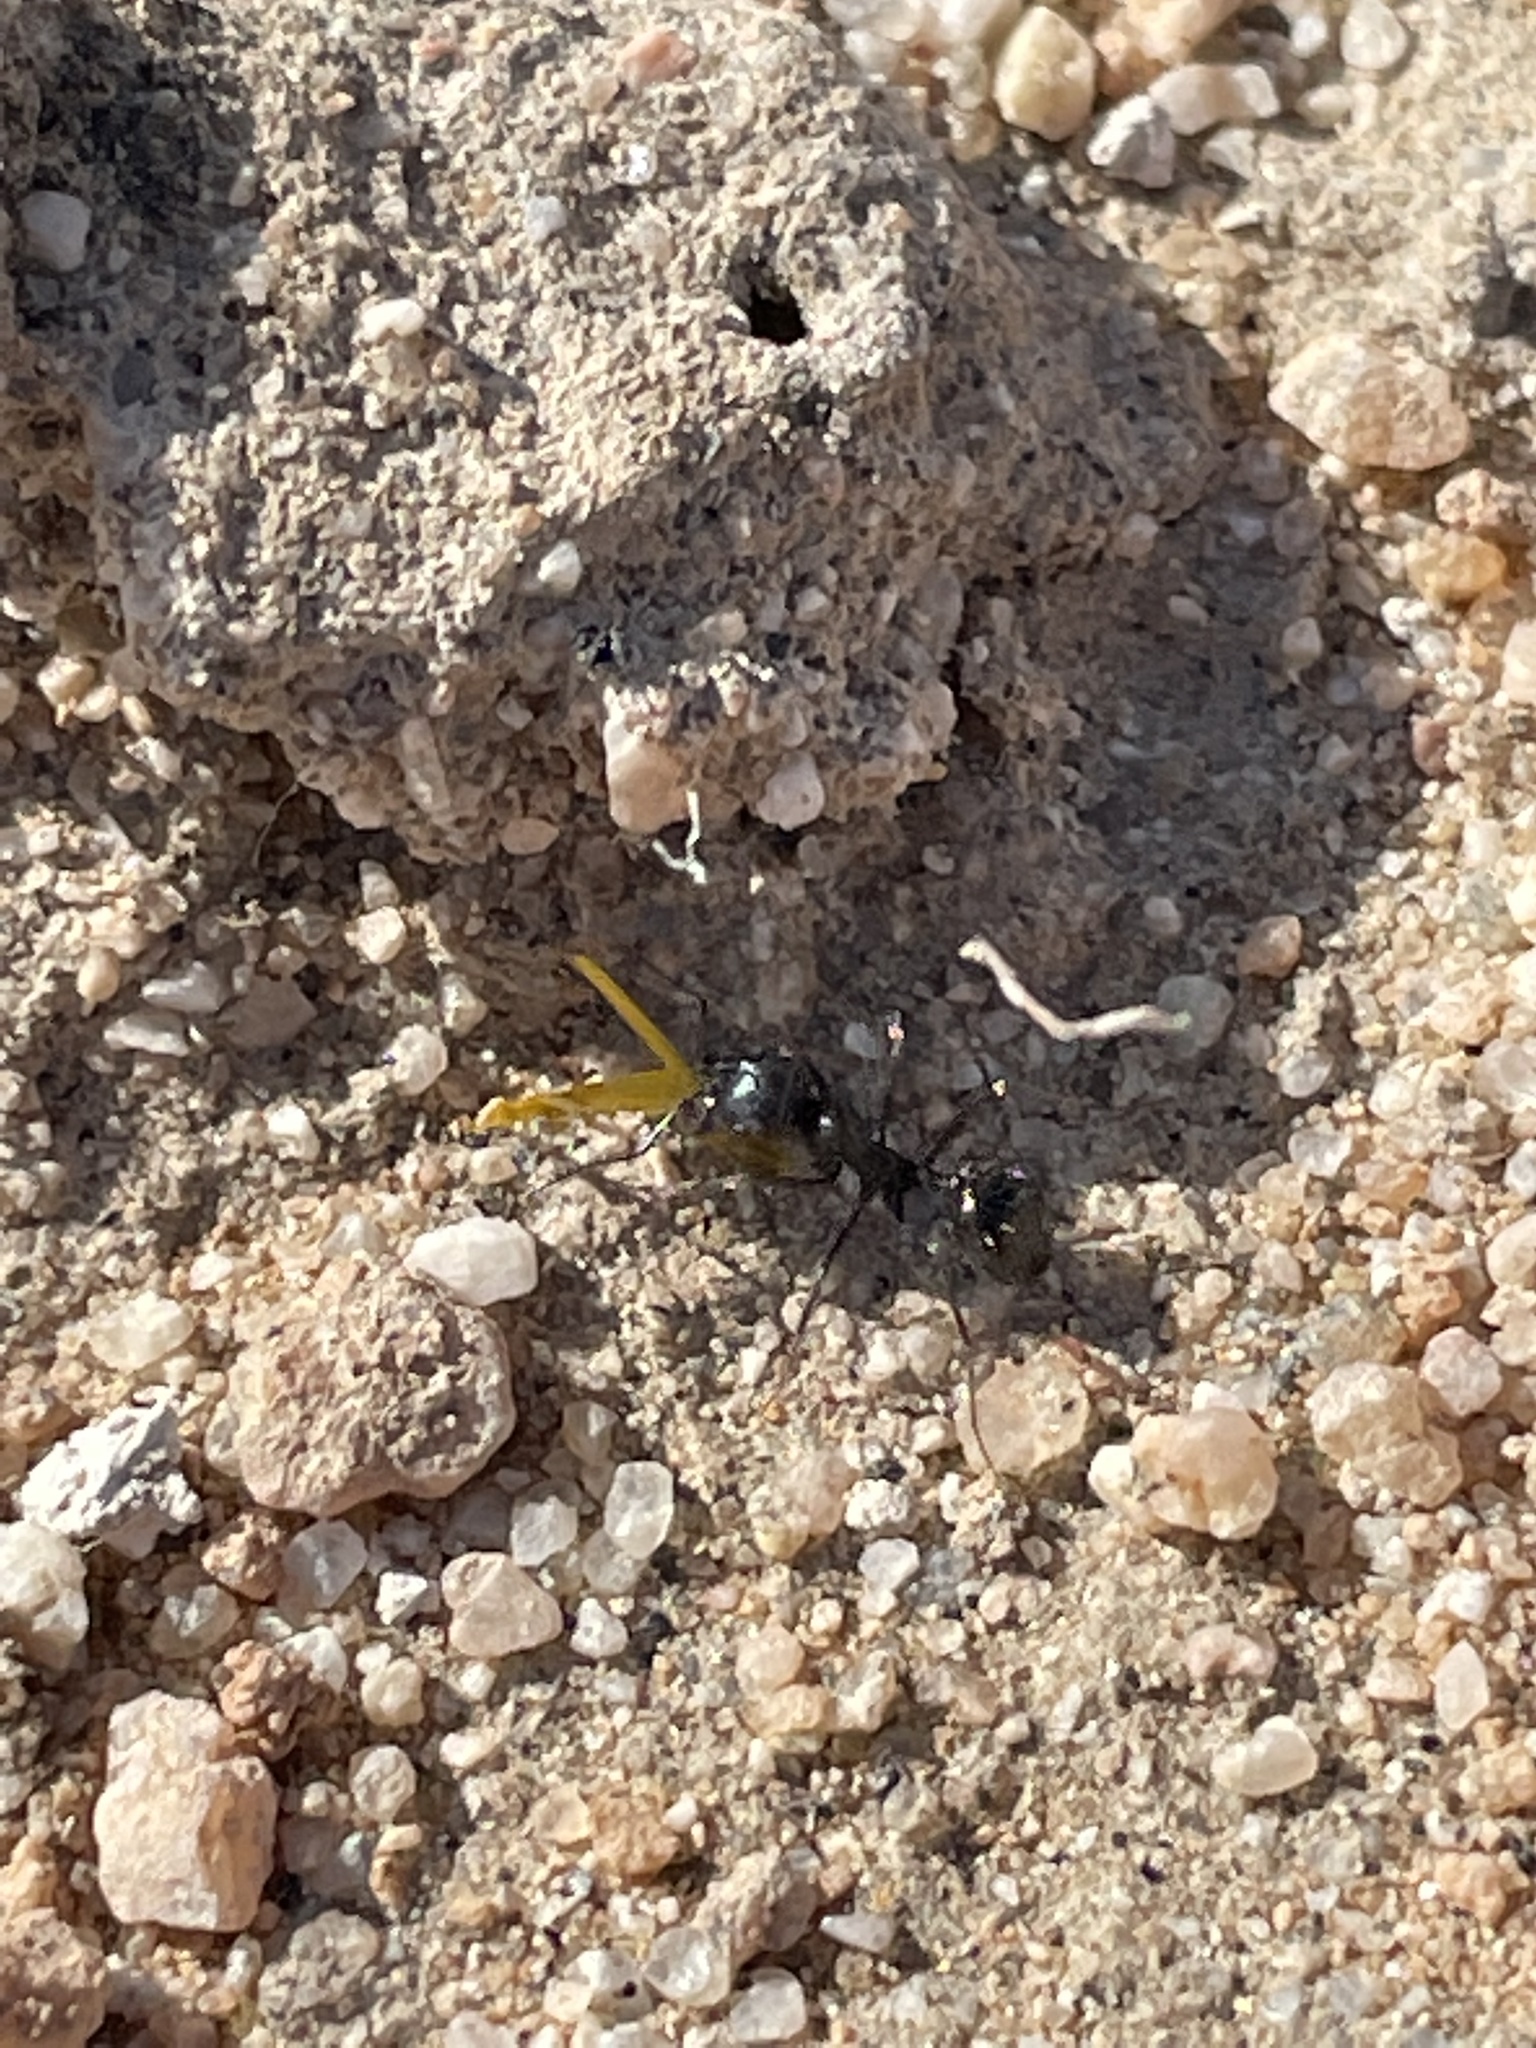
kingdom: Animalia
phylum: Arthropoda
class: Insecta
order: Hymenoptera
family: Formicidae
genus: Messor
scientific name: Messor pergandei
